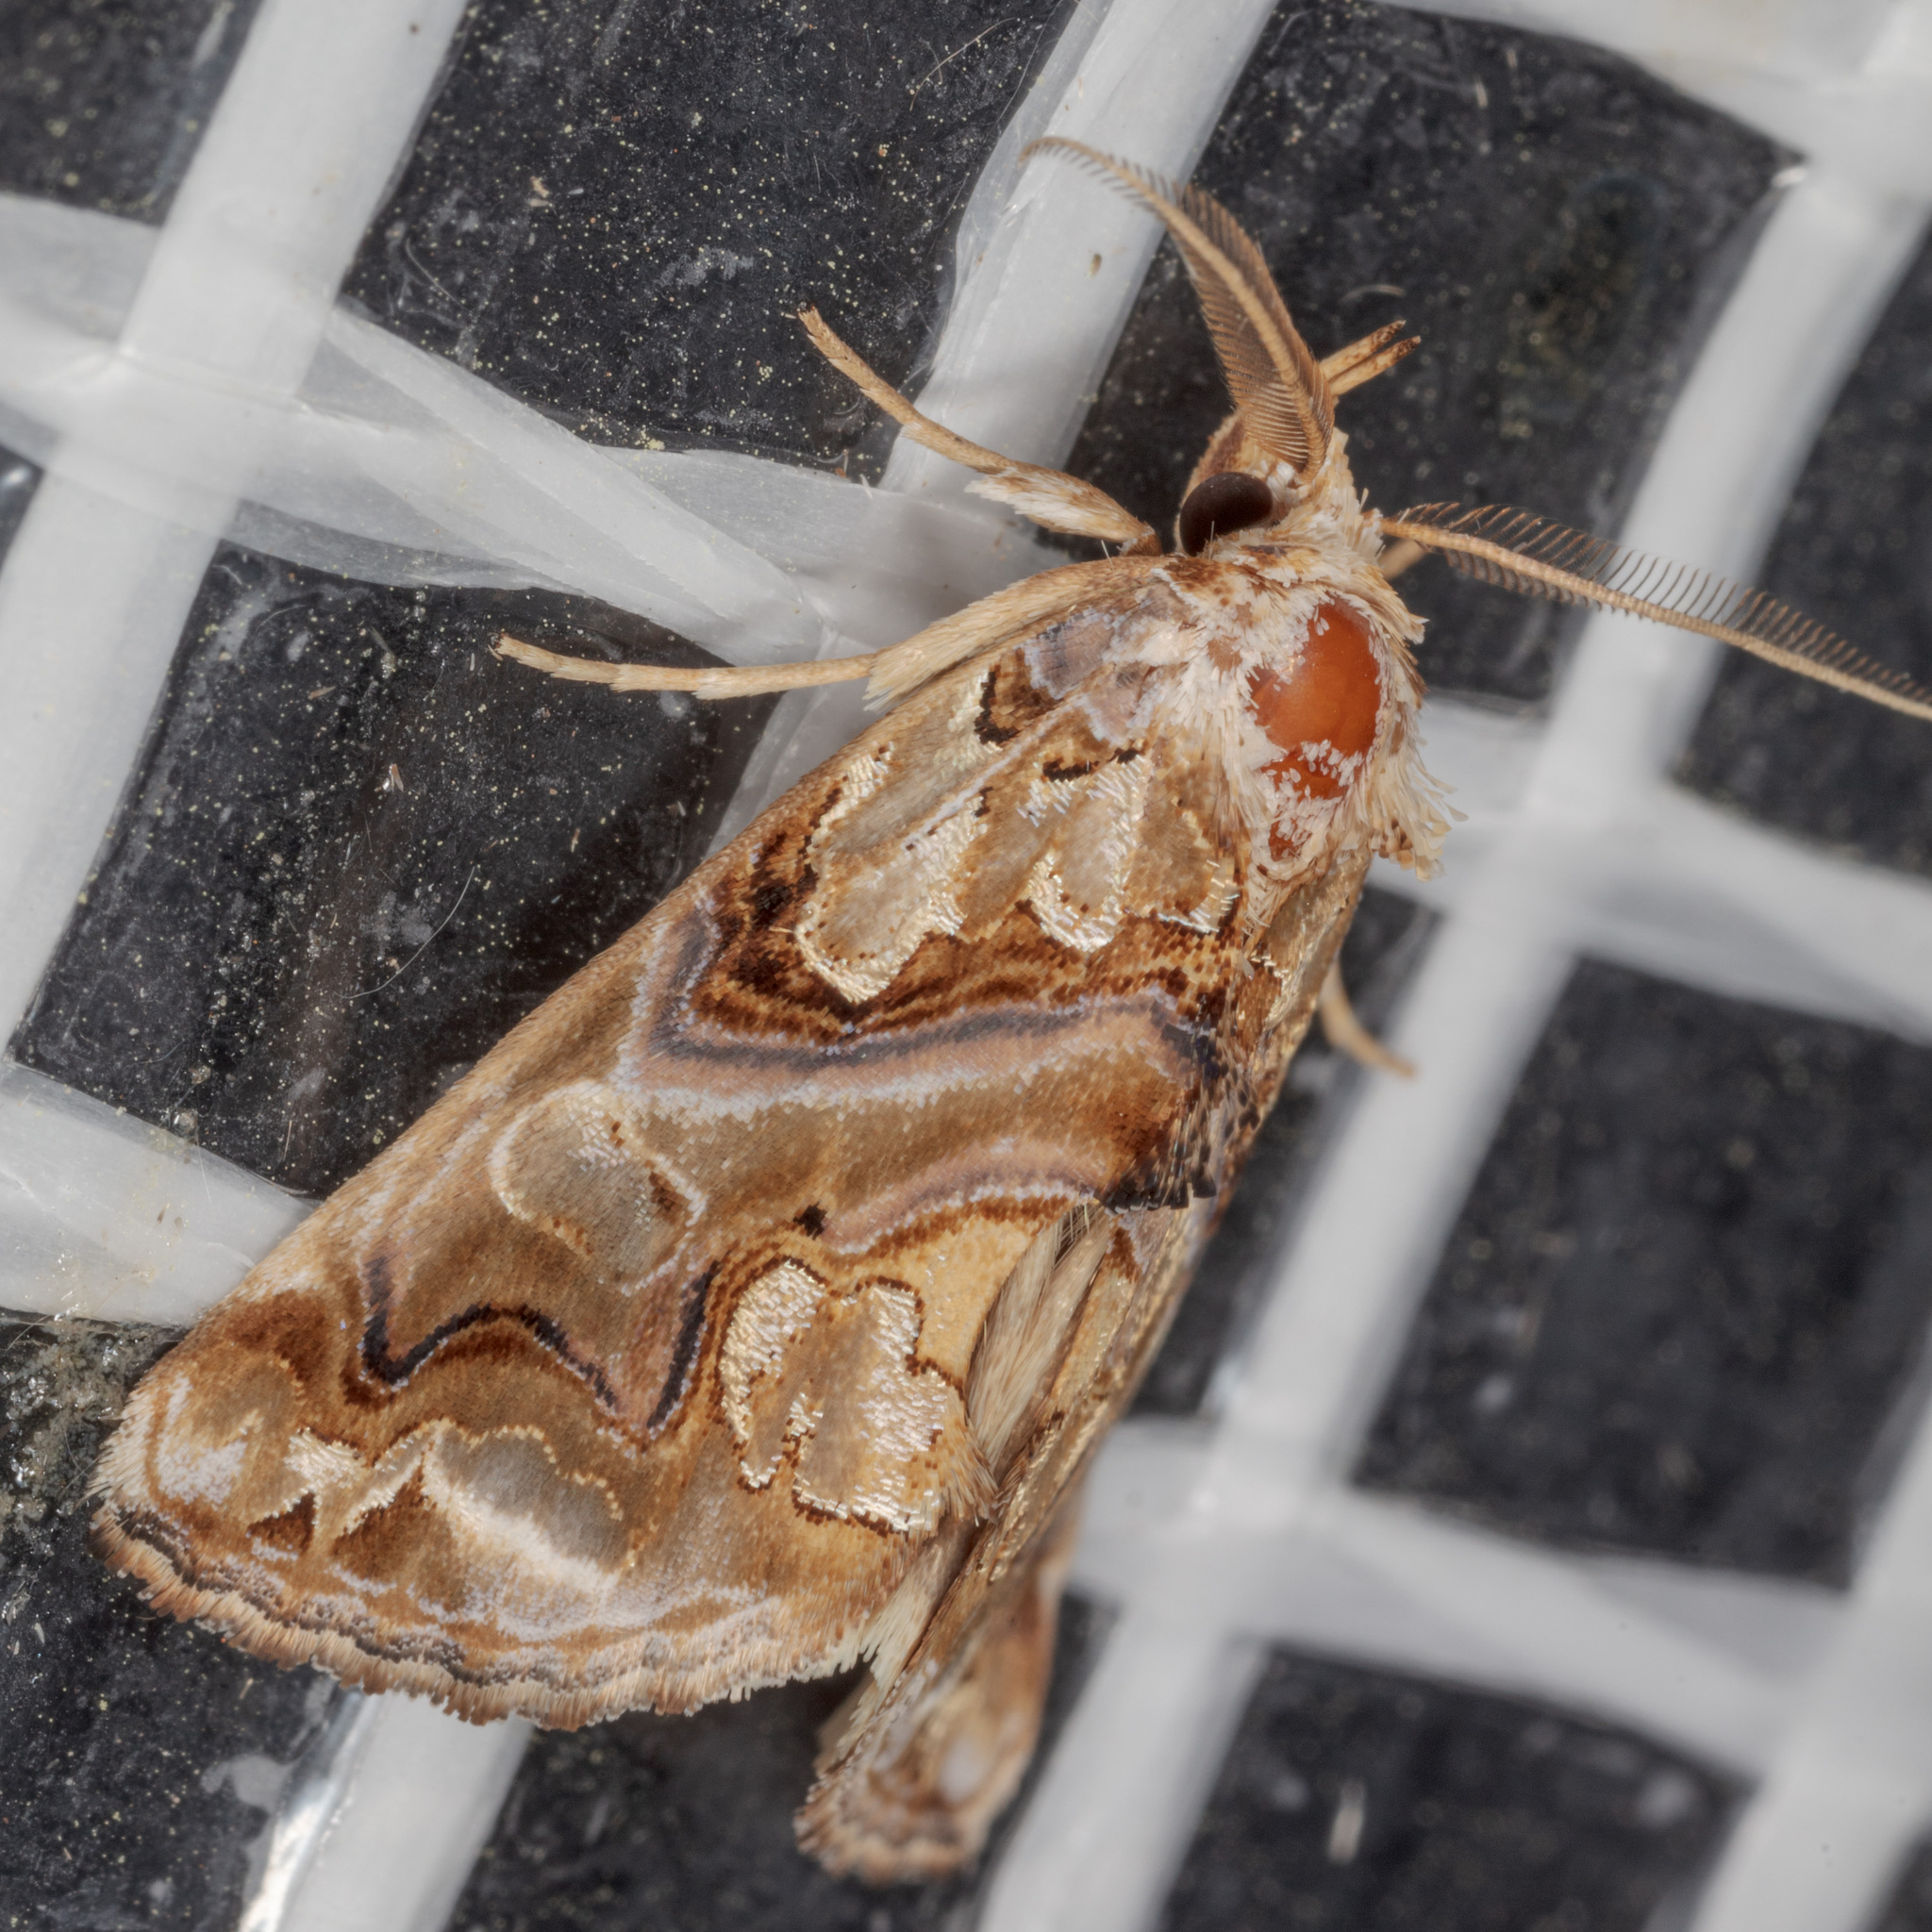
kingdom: Animalia
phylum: Arthropoda
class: Insecta
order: Lepidoptera
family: Erebidae
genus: Plusiodonta
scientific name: Plusiodonta compressipalpis
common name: Moonseed moth
